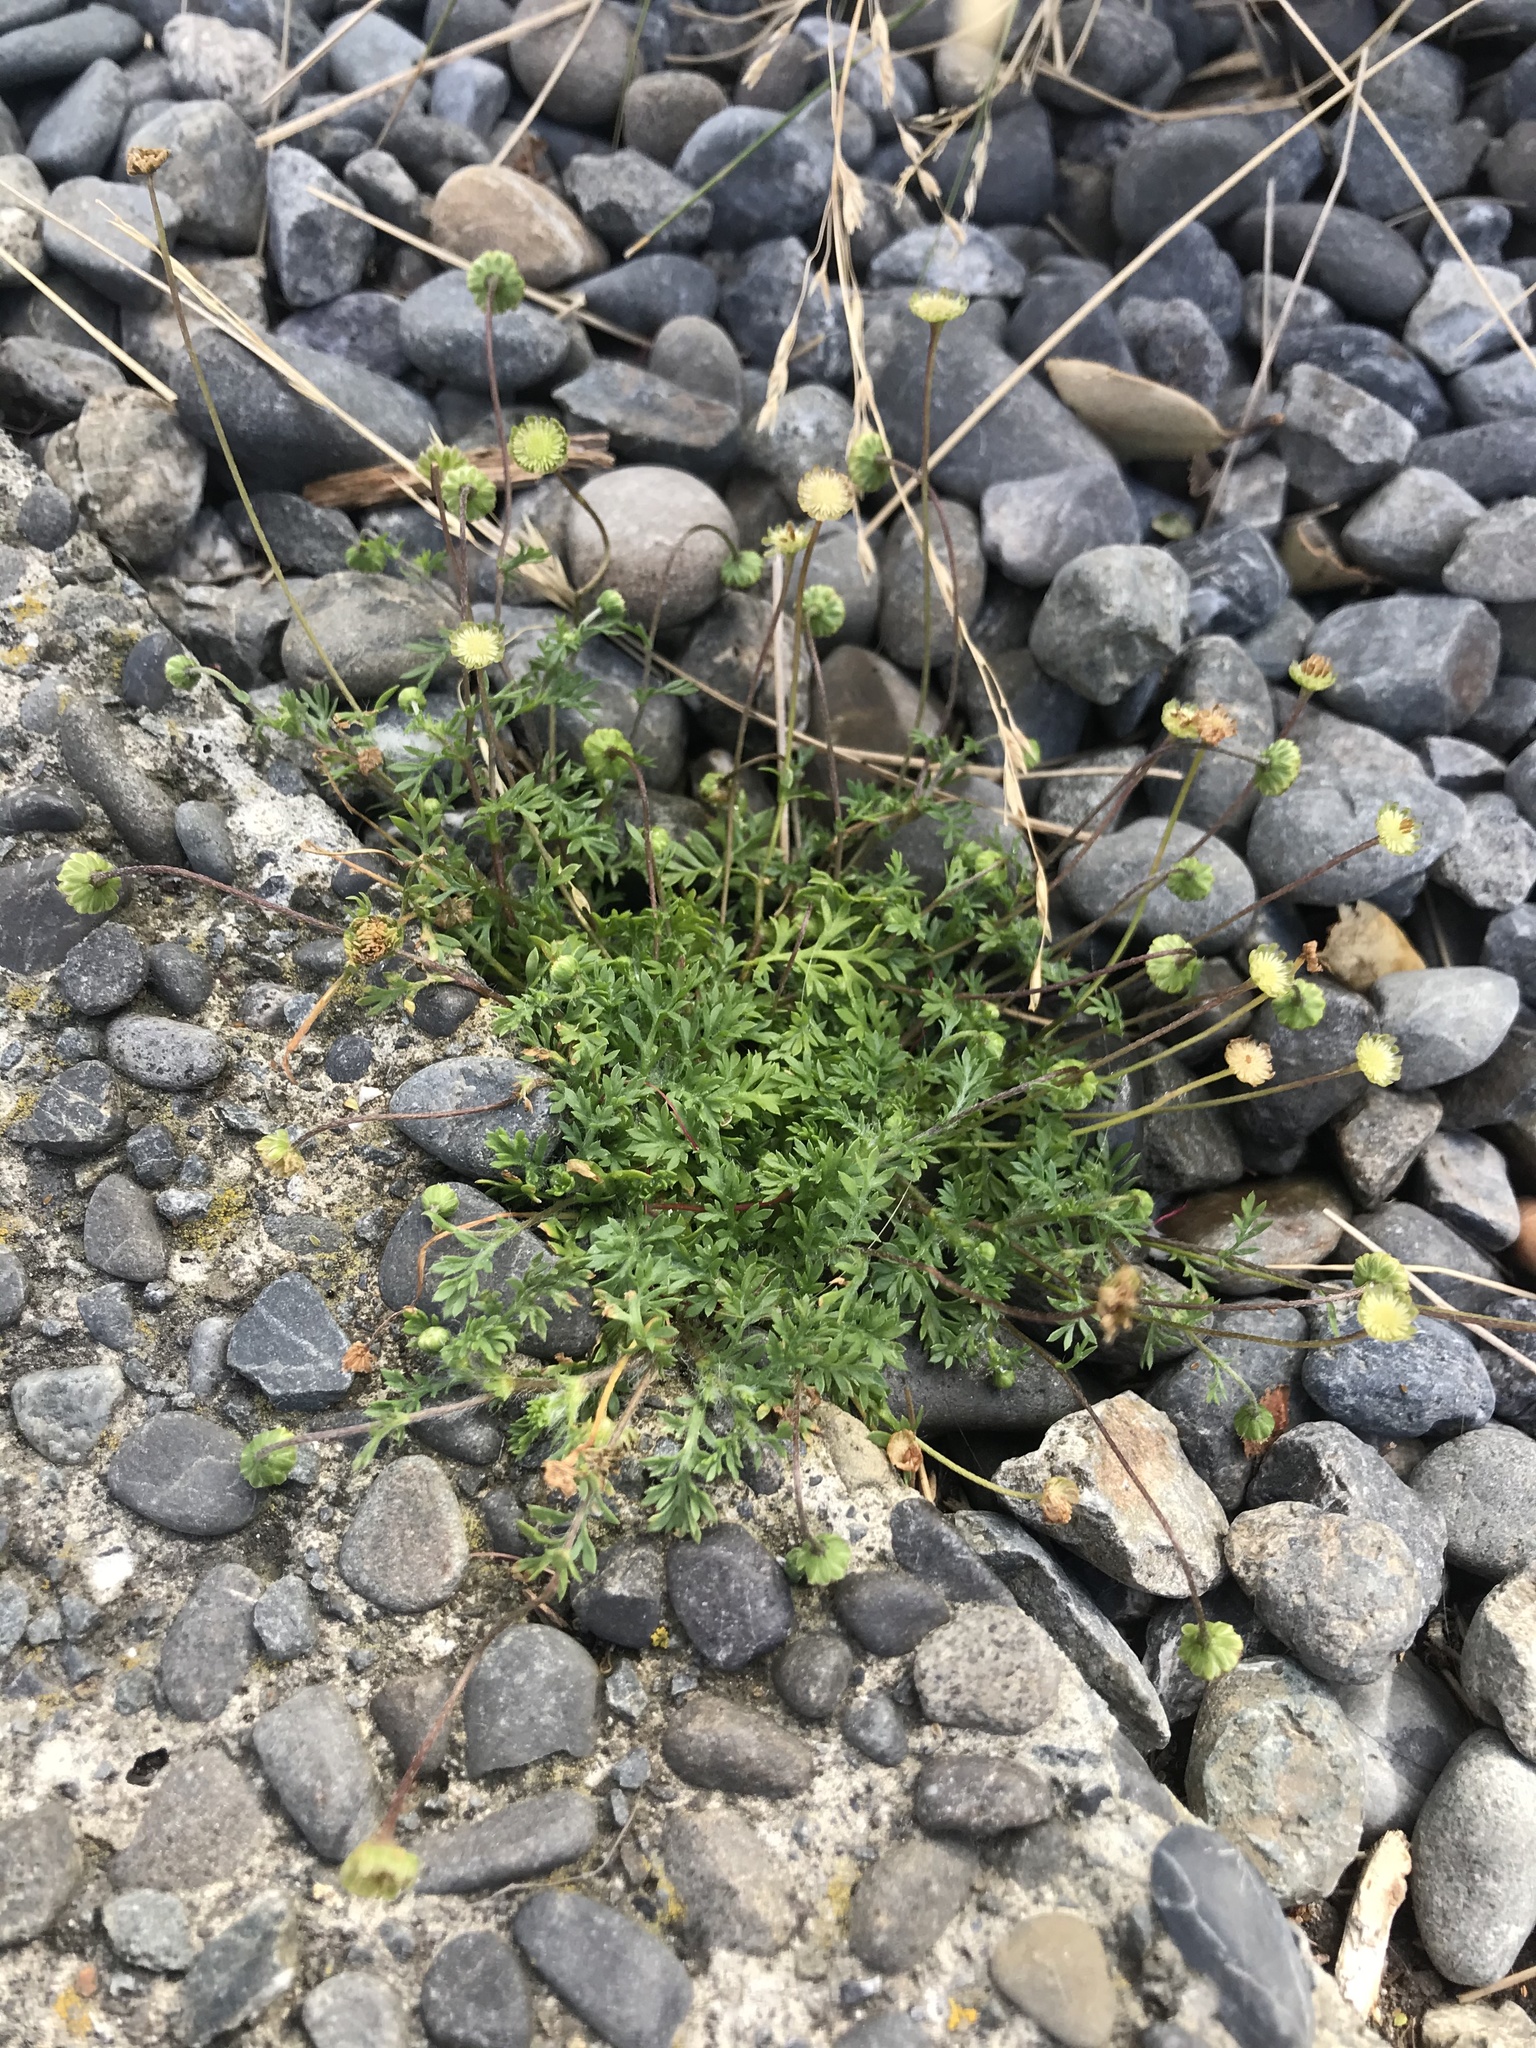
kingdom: Plantae
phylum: Tracheophyta
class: Magnoliopsida
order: Asterales
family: Asteraceae
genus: Cotula
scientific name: Cotula australis
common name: Australian waterbuttons
